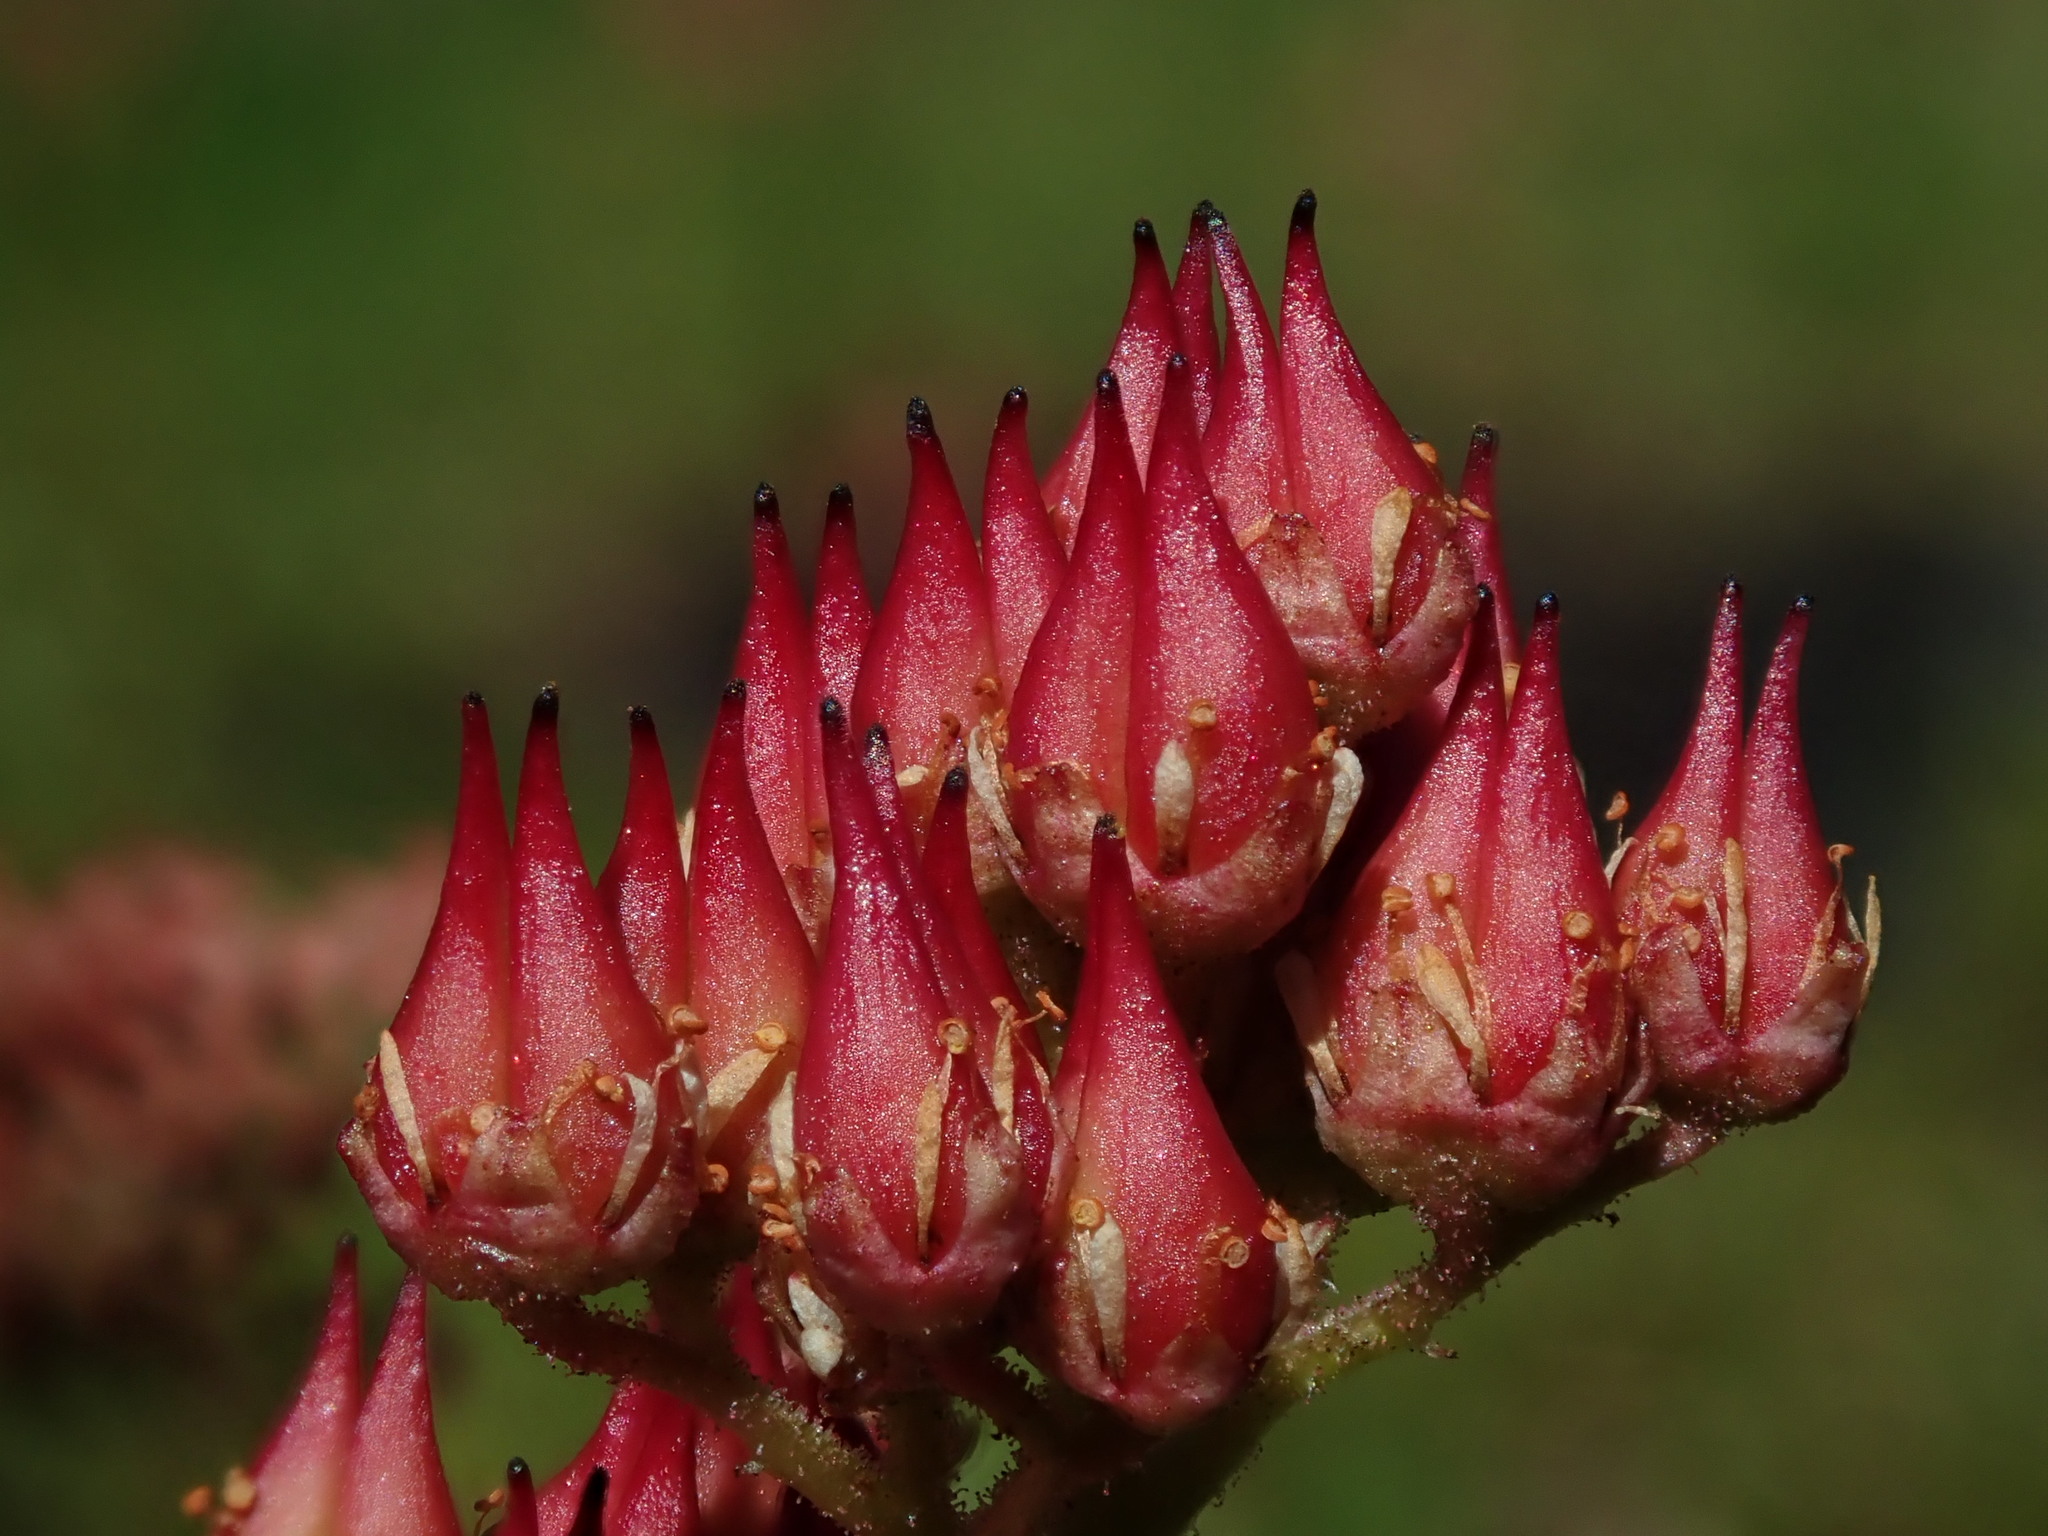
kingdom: Plantae
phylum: Tracheophyta
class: Magnoliopsida
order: Saxifragales
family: Saxifragaceae
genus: Leptarrhena
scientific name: Leptarrhena pyrolifolia
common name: Leatherleaf-saxifrage
